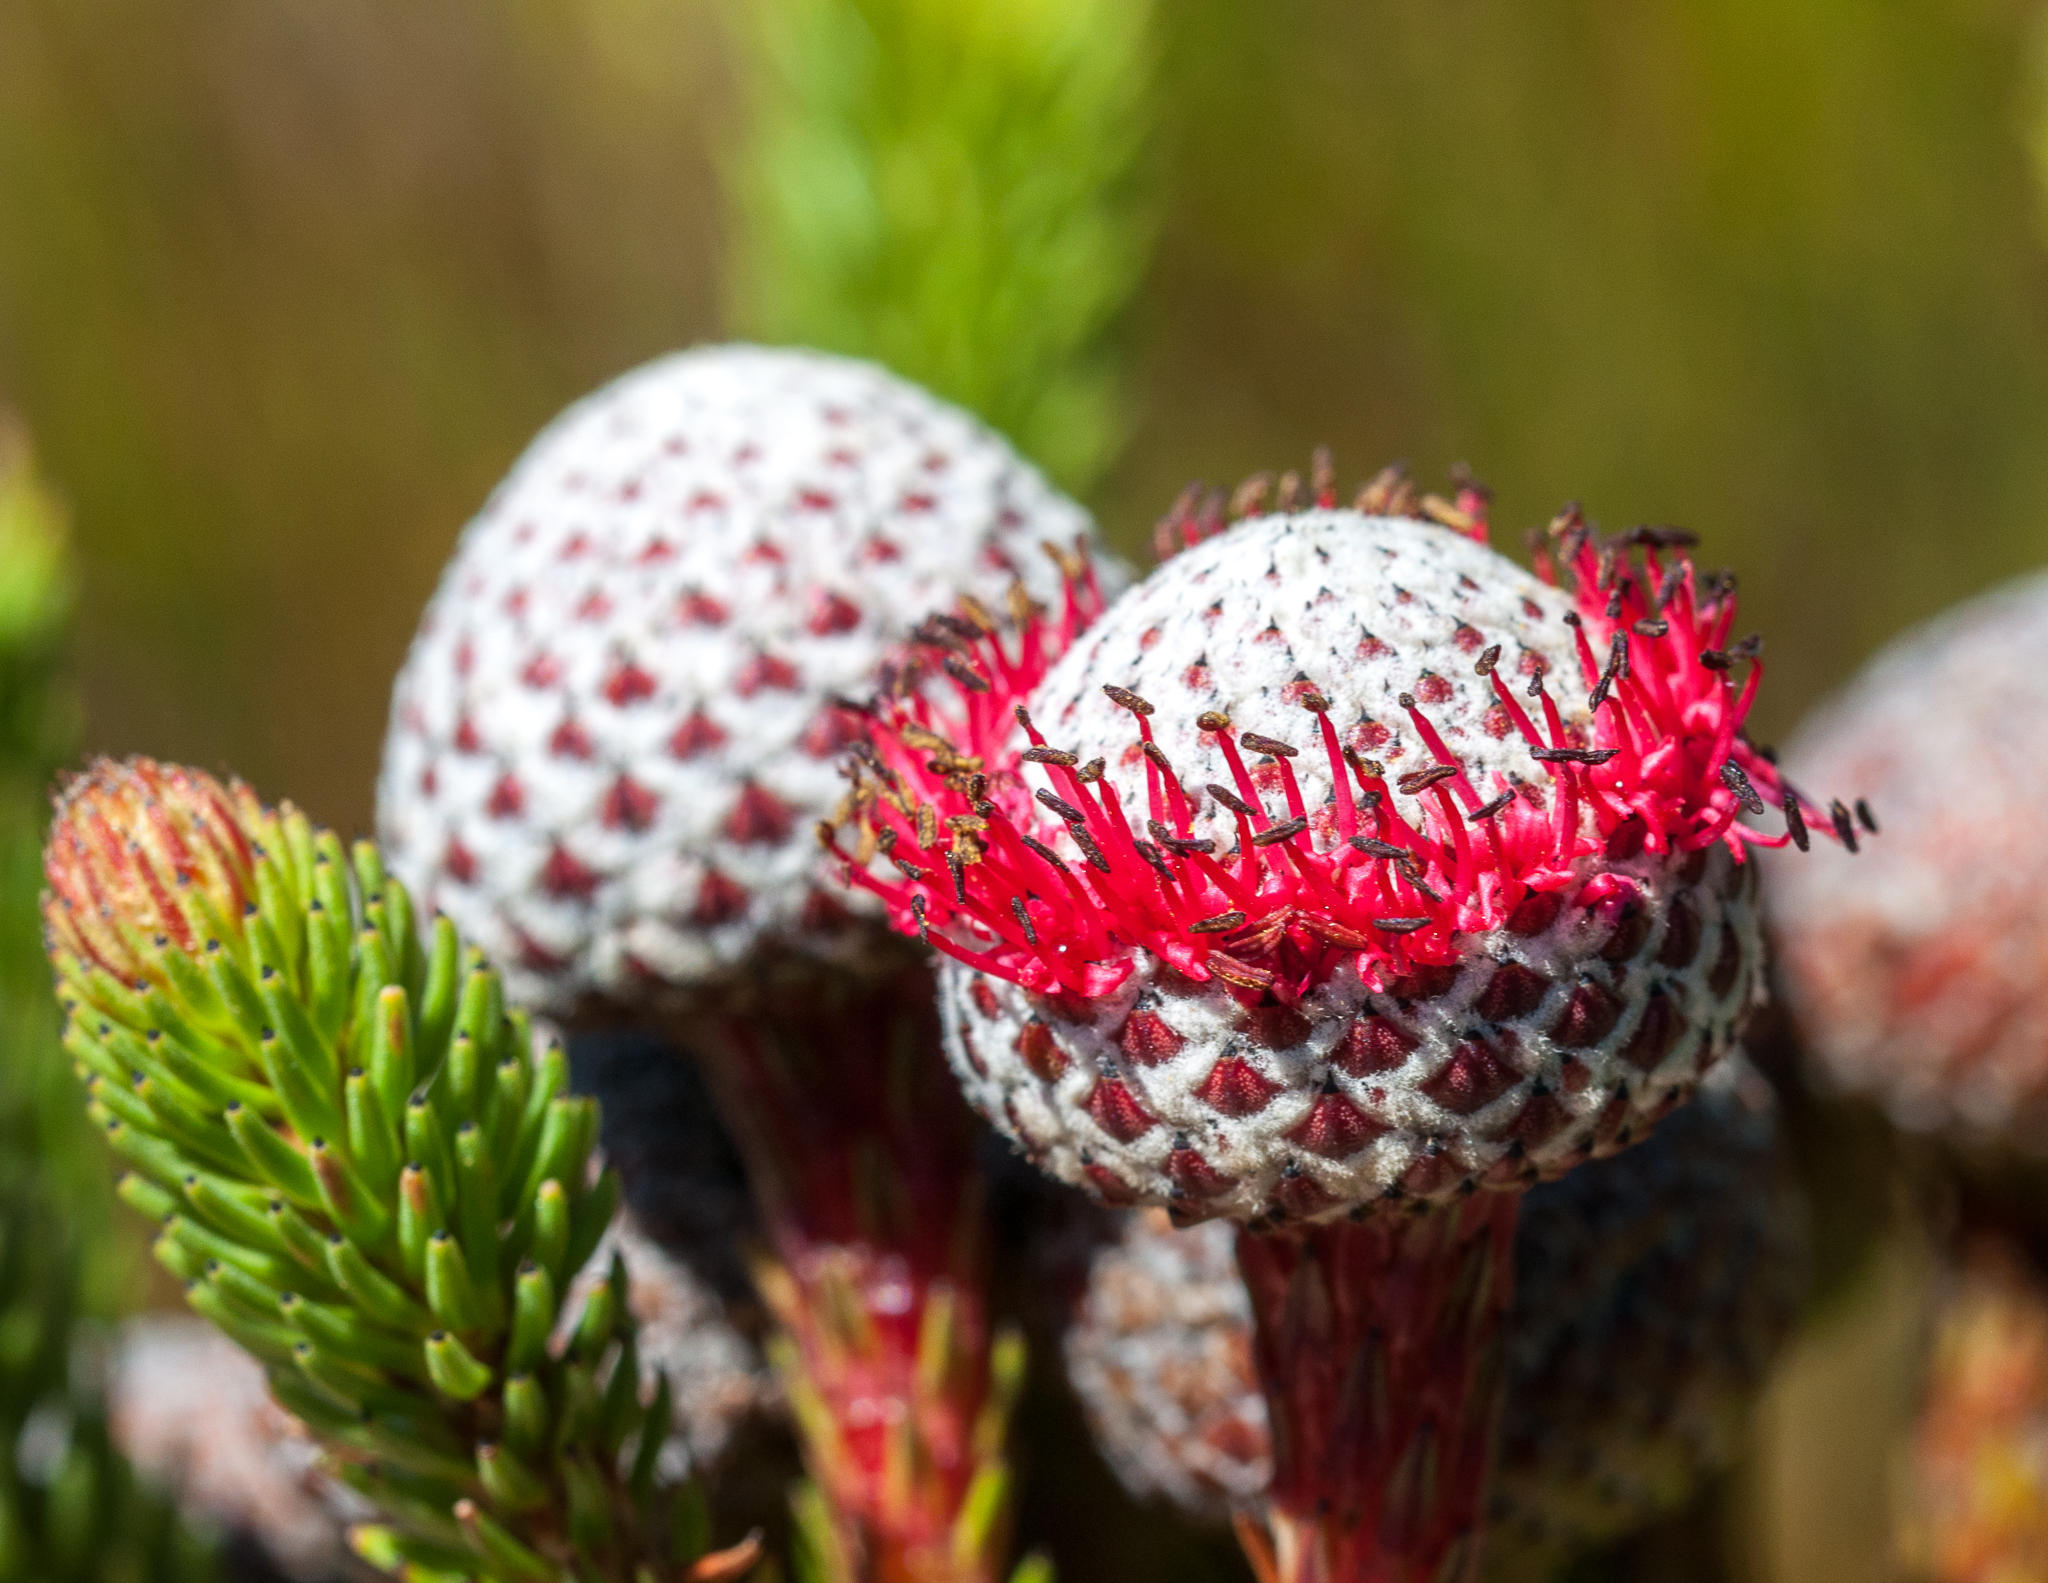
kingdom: Plantae
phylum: Tracheophyta
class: Magnoliopsida
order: Bruniales
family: Bruniaceae
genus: Berzelia
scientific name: Berzelia stokoei
